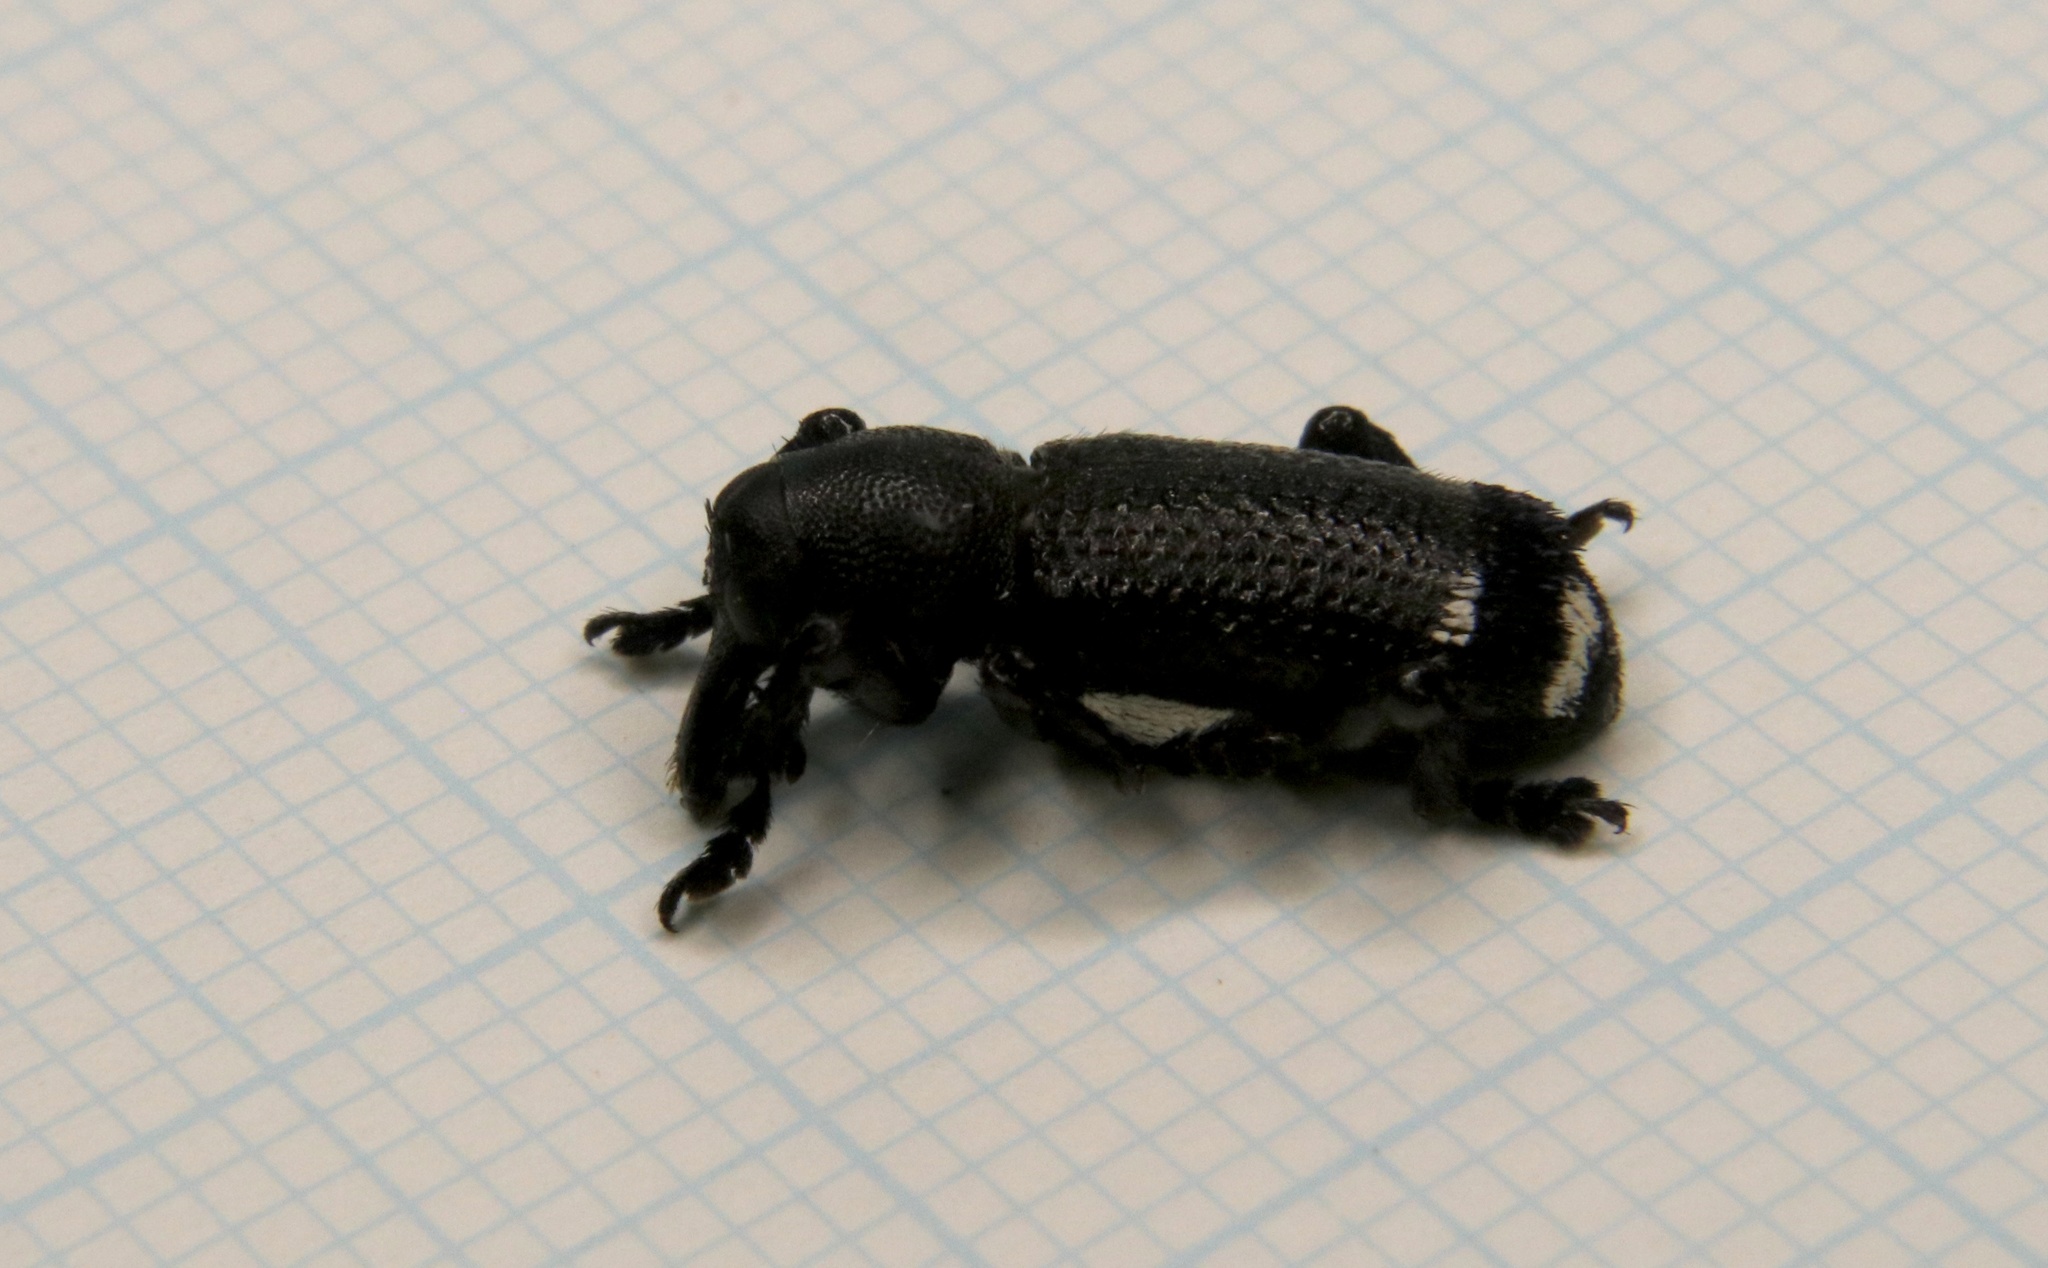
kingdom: Animalia
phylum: Arthropoda
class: Insecta
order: Coleoptera
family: Curculionidae
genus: Nothofagius
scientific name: Nothofagius fimbriatus
